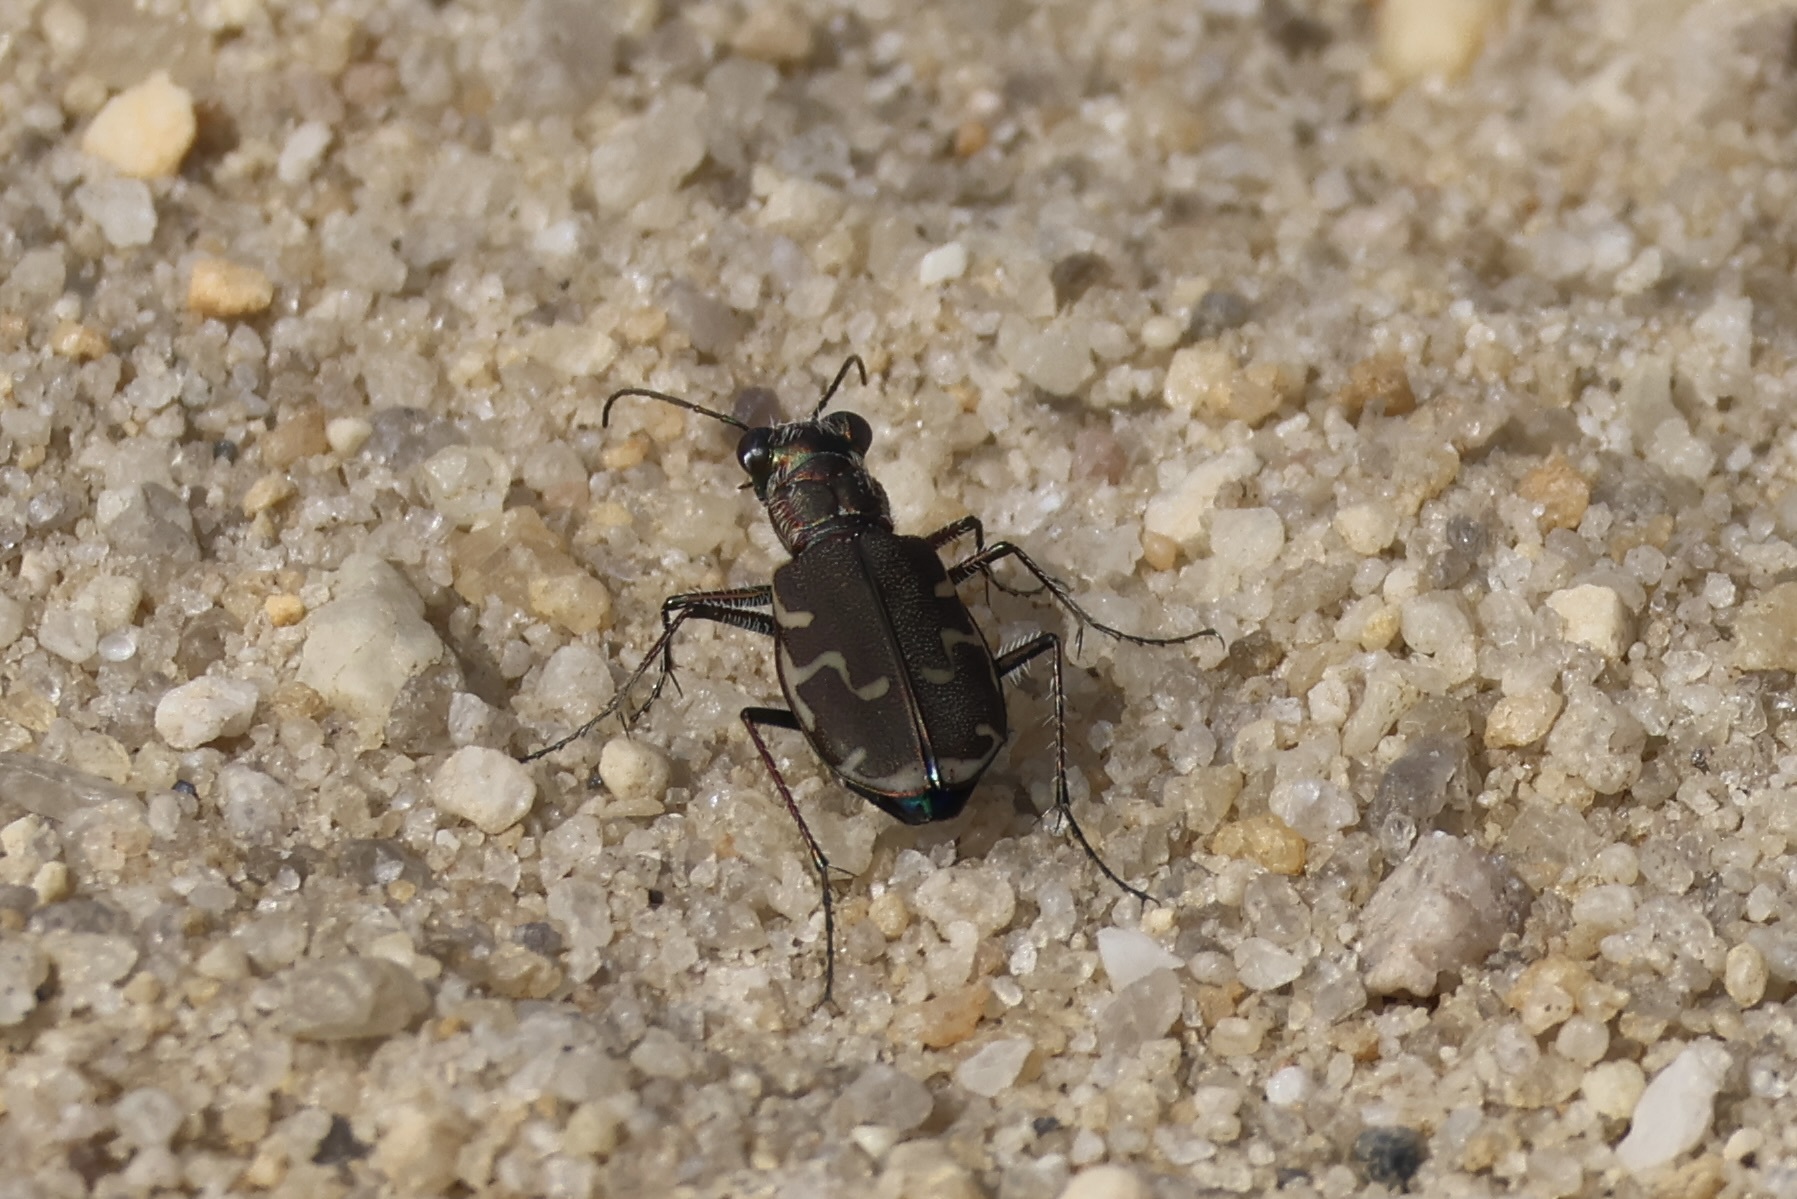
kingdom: Animalia
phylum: Arthropoda
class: Insecta
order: Coleoptera
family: Carabidae
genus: Cicindela
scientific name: Cicindela repanda
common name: Bronzed tiger beetle
